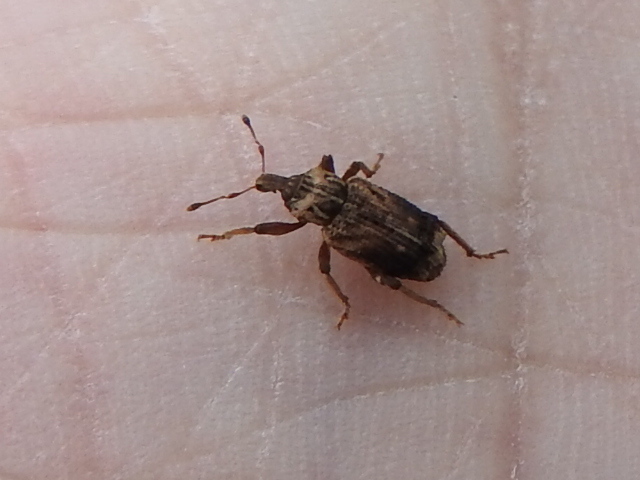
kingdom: Animalia
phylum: Arthropoda
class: Insecta
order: Coleoptera
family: Curculionidae
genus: Listroderes
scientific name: Listroderes apicalis
